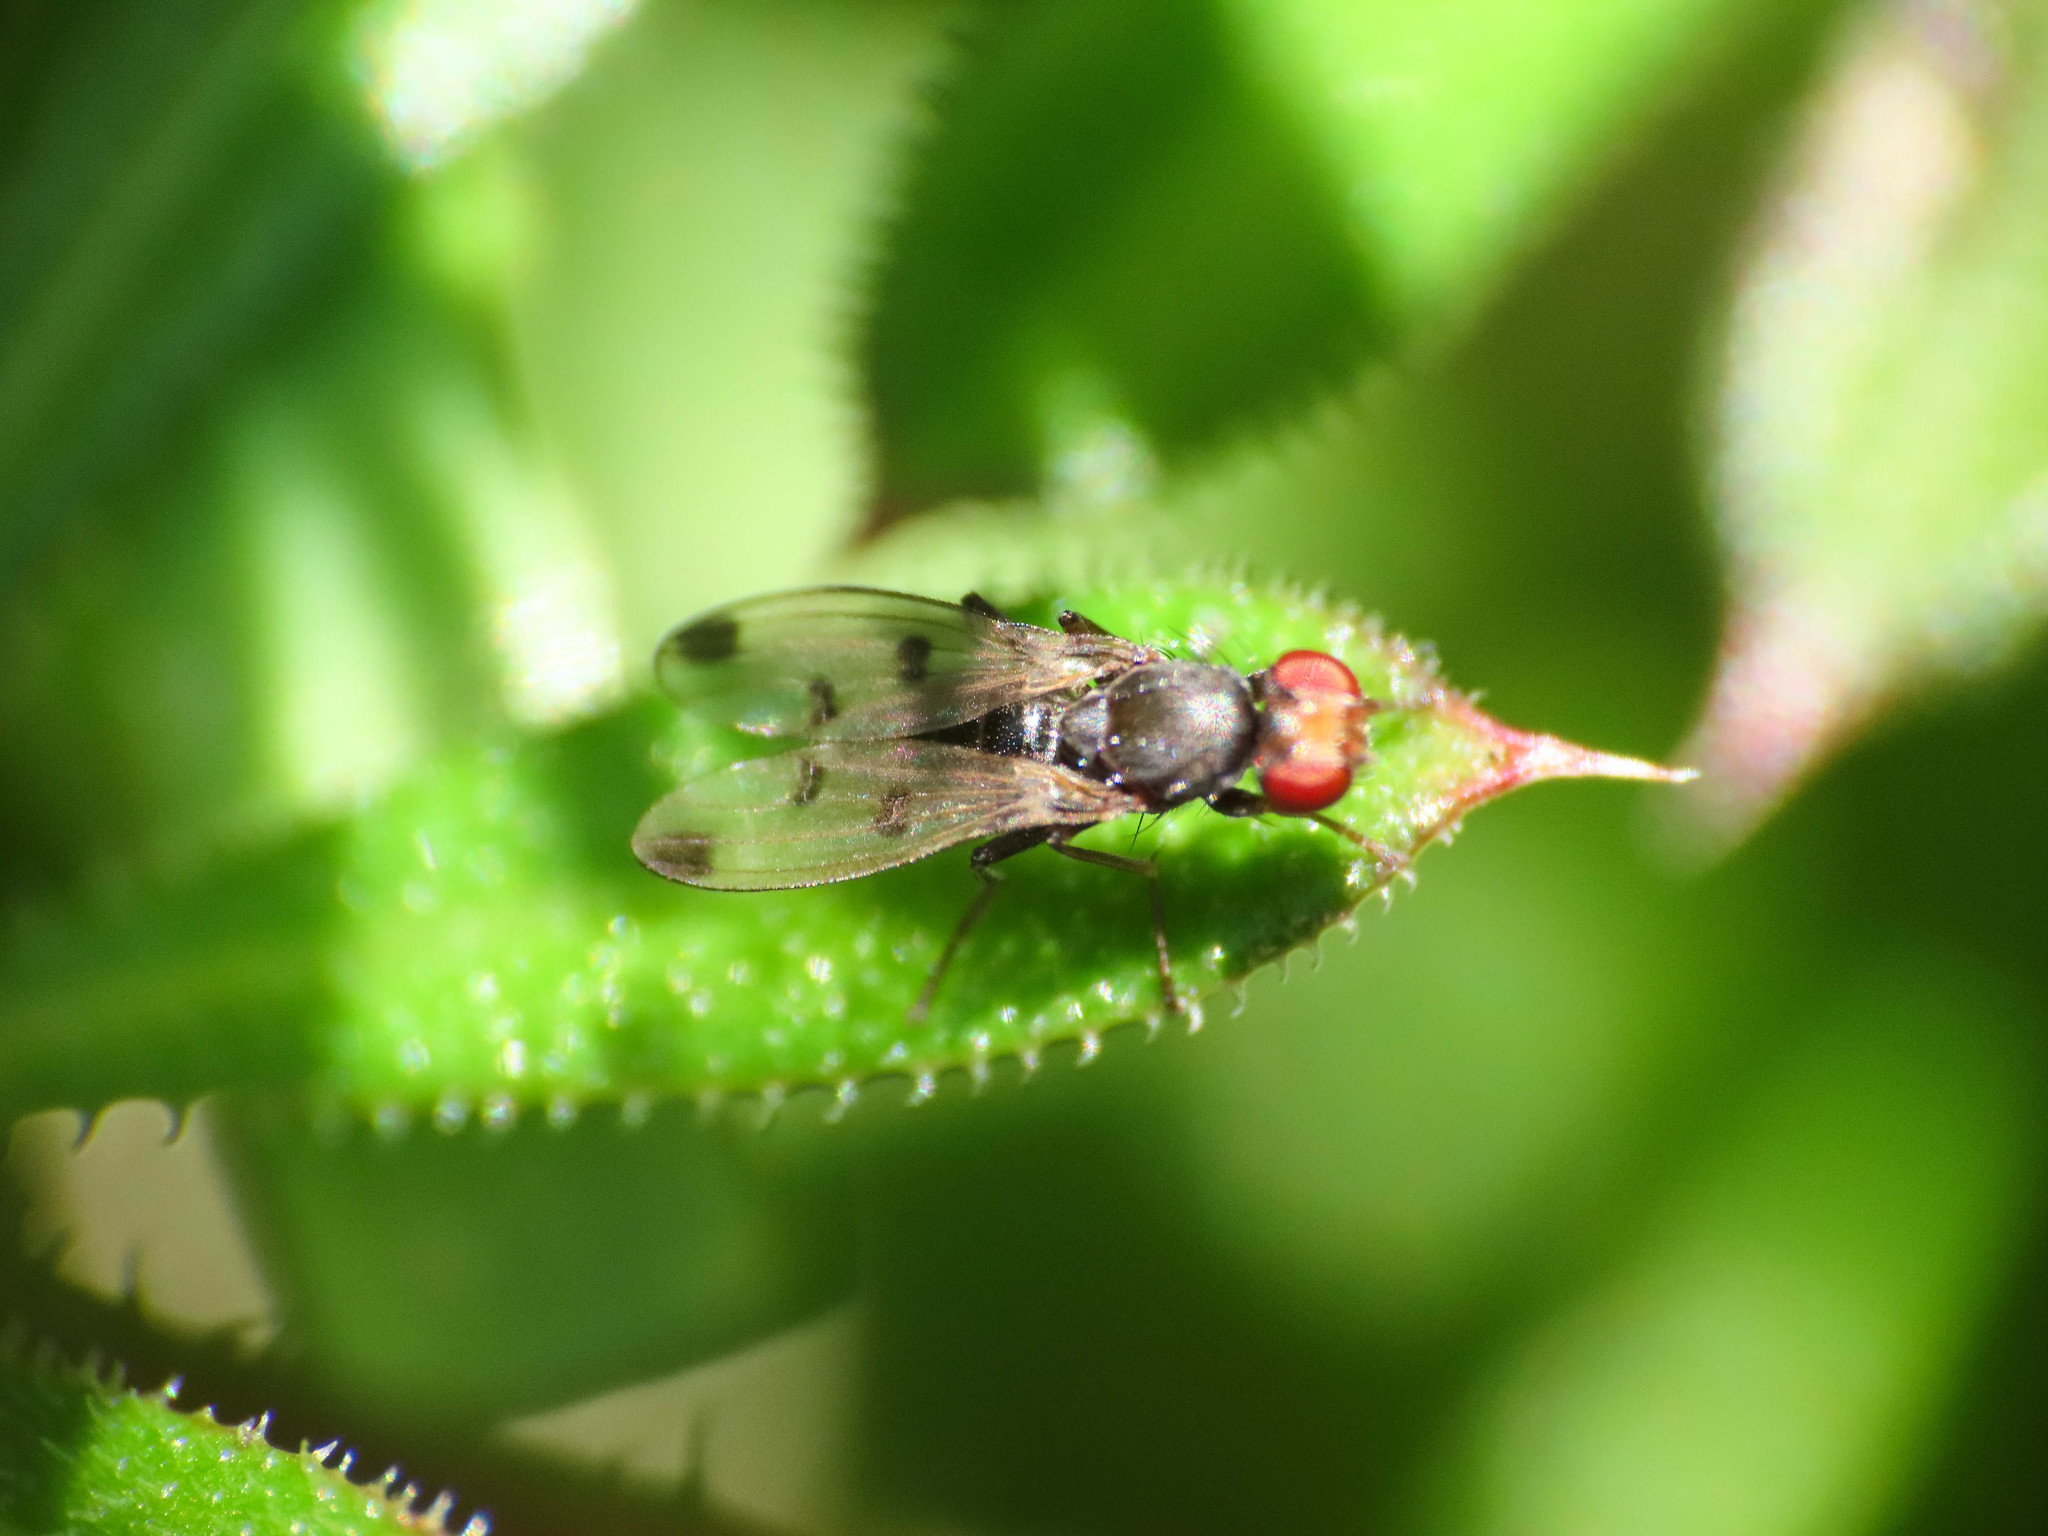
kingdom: Animalia
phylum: Arthropoda
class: Insecta
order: Diptera
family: Opomyzidae
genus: Geomyza
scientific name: Geomyza tripunctata
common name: Cereal fly
